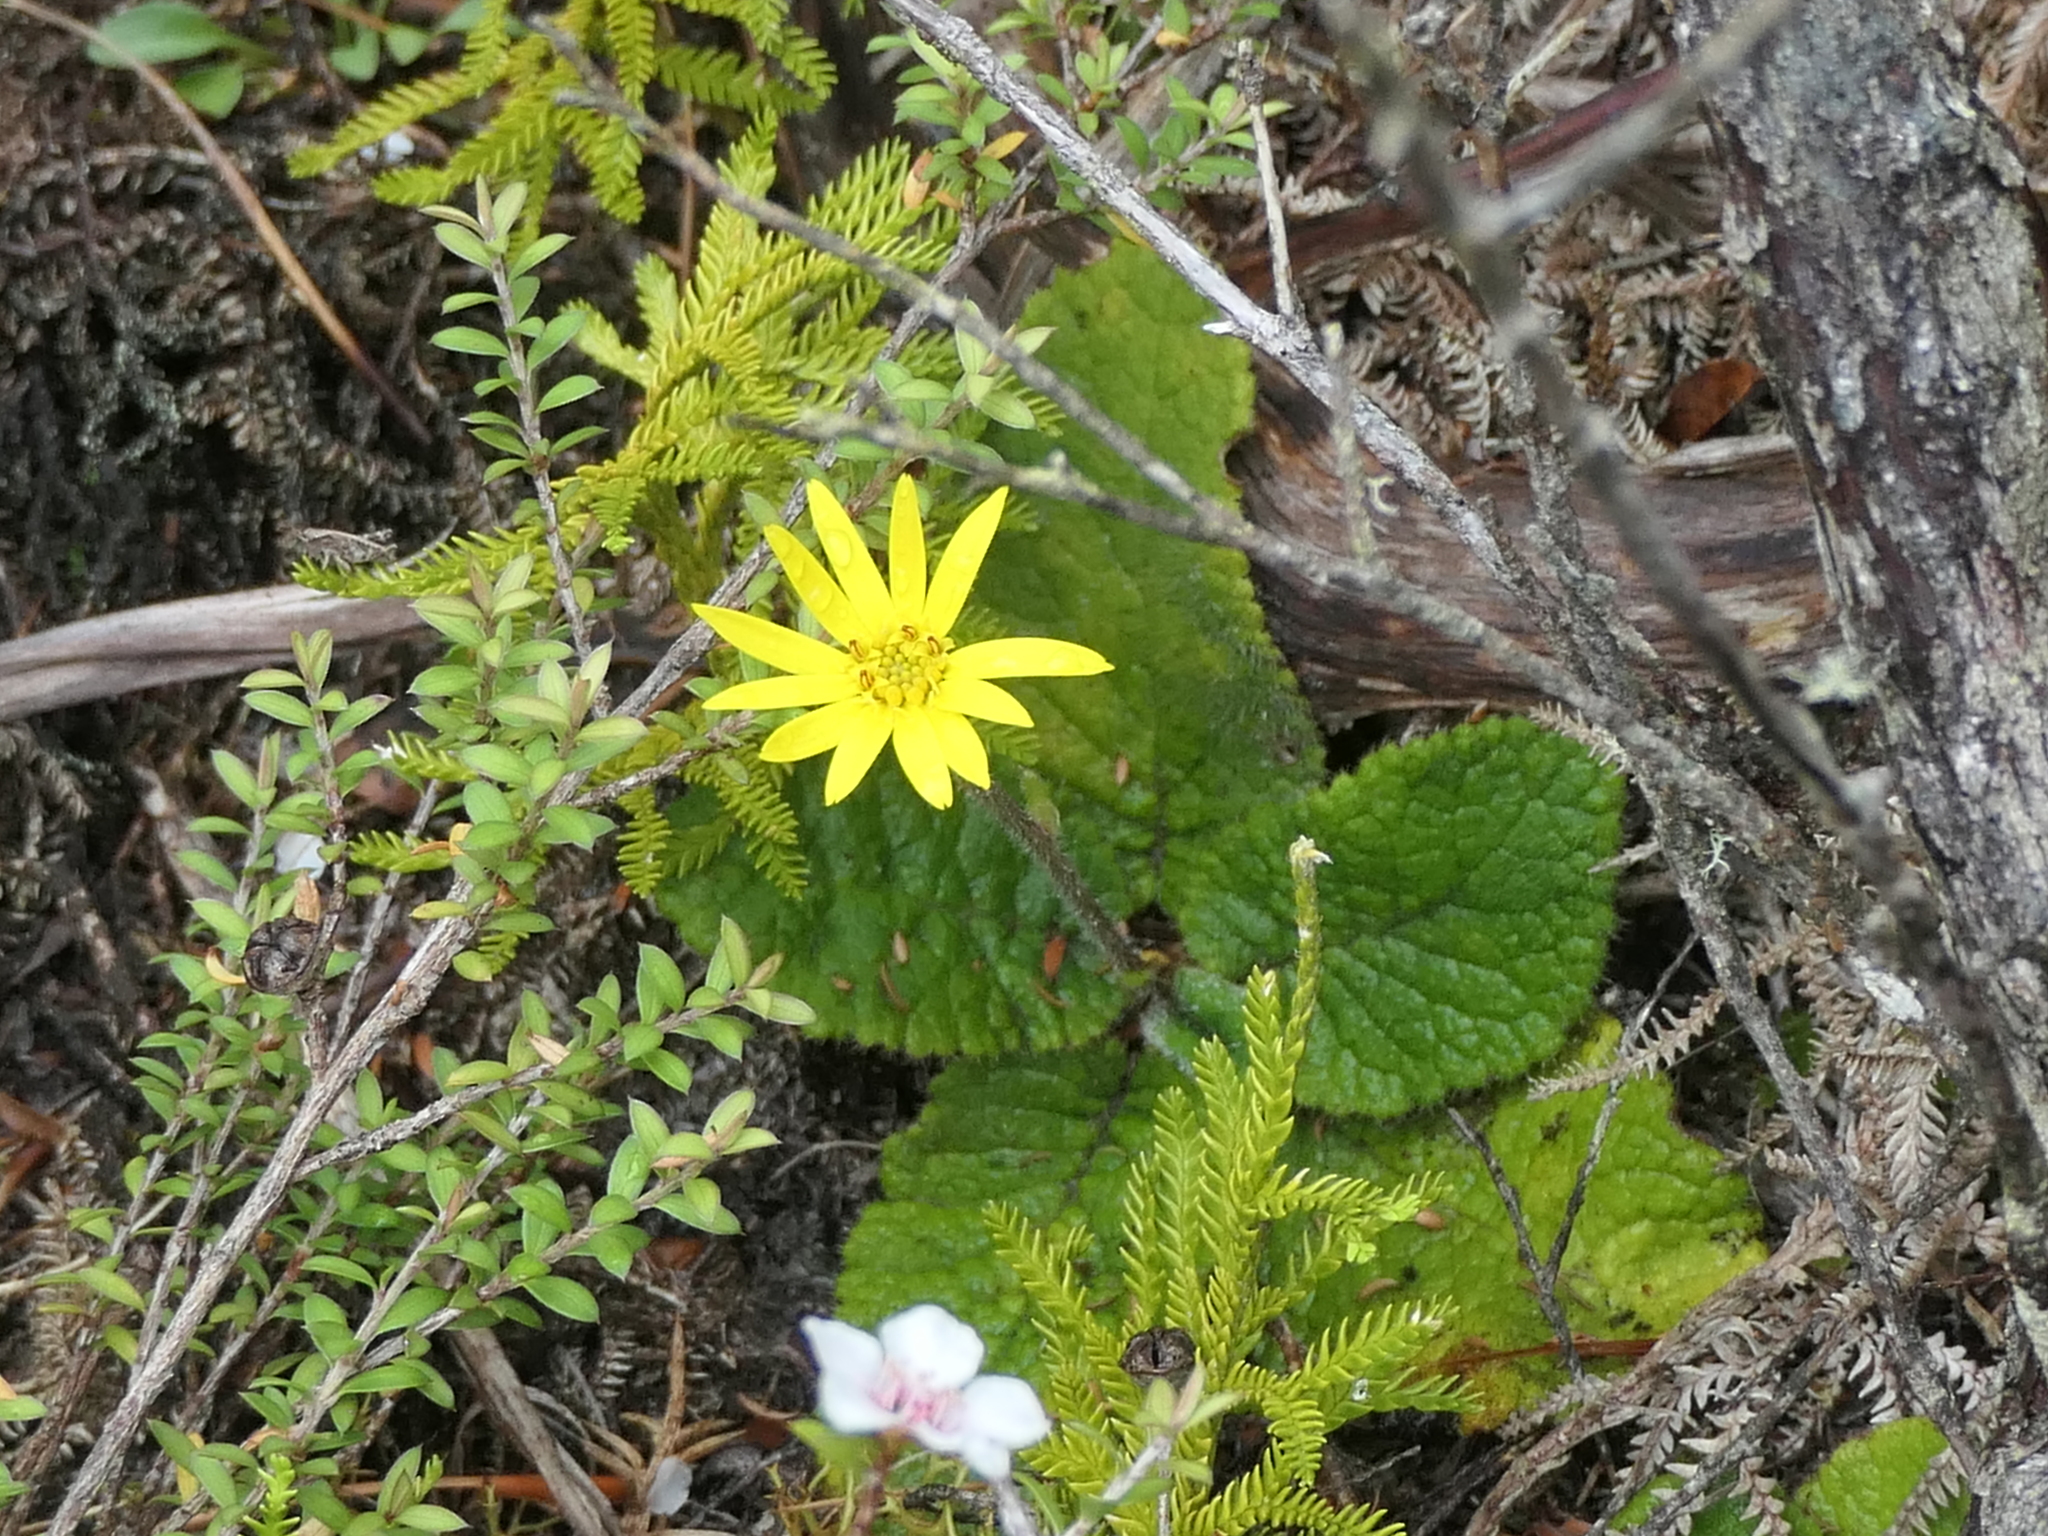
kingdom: Plantae
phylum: Tracheophyta
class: Magnoliopsida
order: Asterales
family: Asteraceae
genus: Brachyglottis
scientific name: Brachyglottis lagopus
